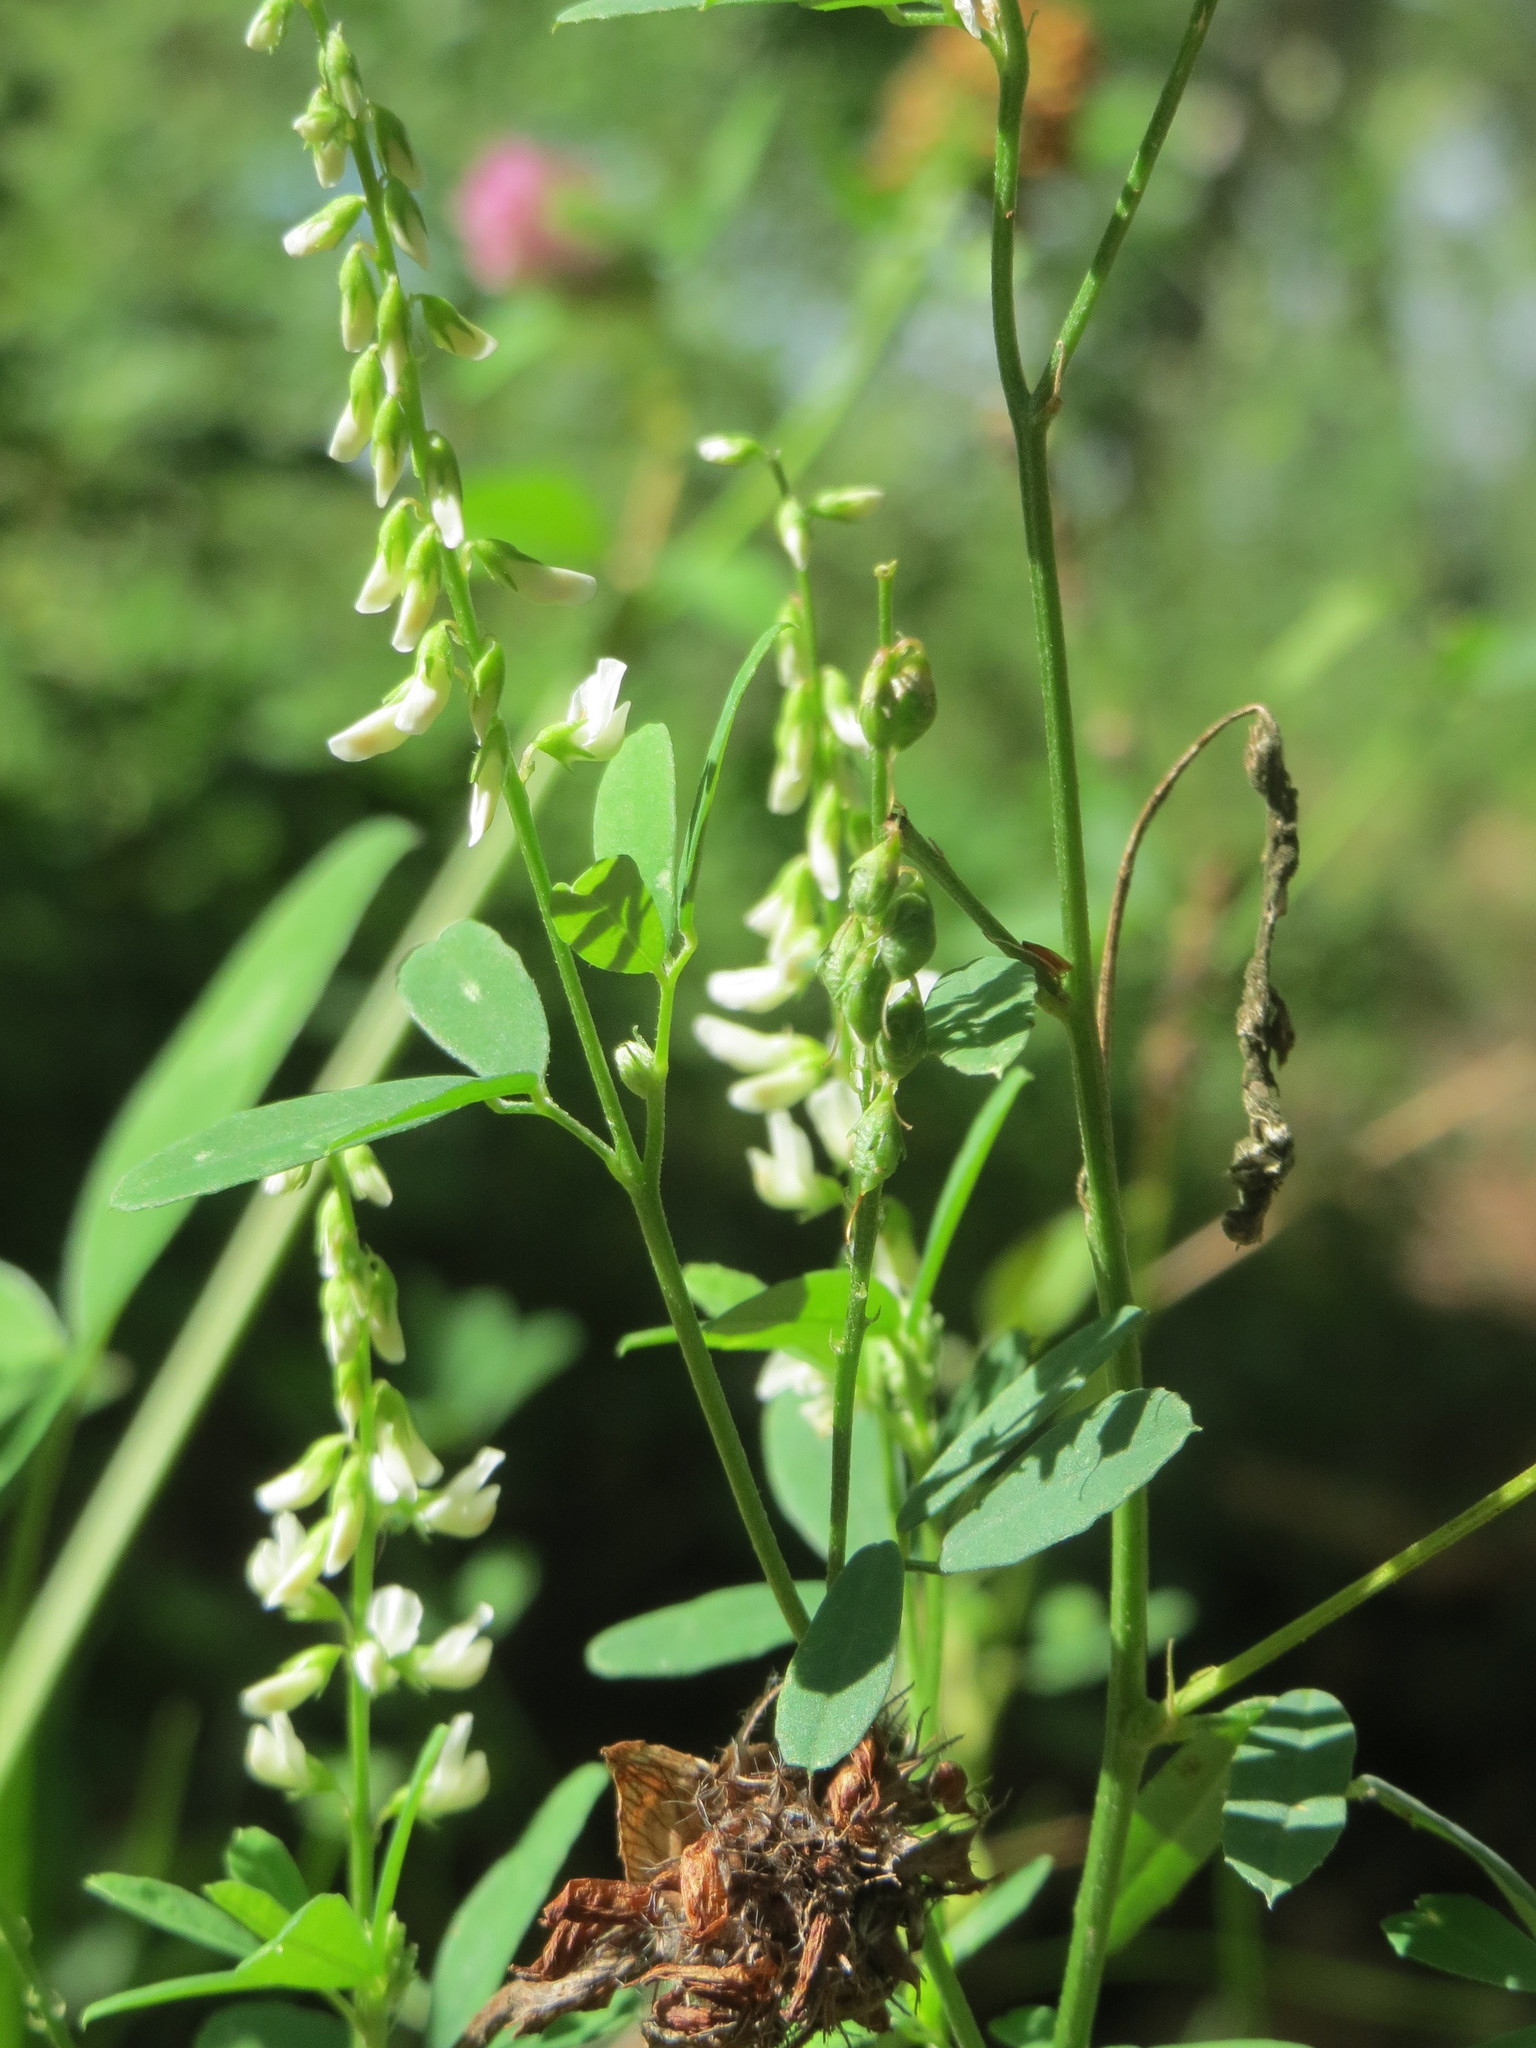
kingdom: Plantae
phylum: Tracheophyta
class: Magnoliopsida
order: Fabales
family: Fabaceae
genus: Melilotus
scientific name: Melilotus albus
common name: White melilot
